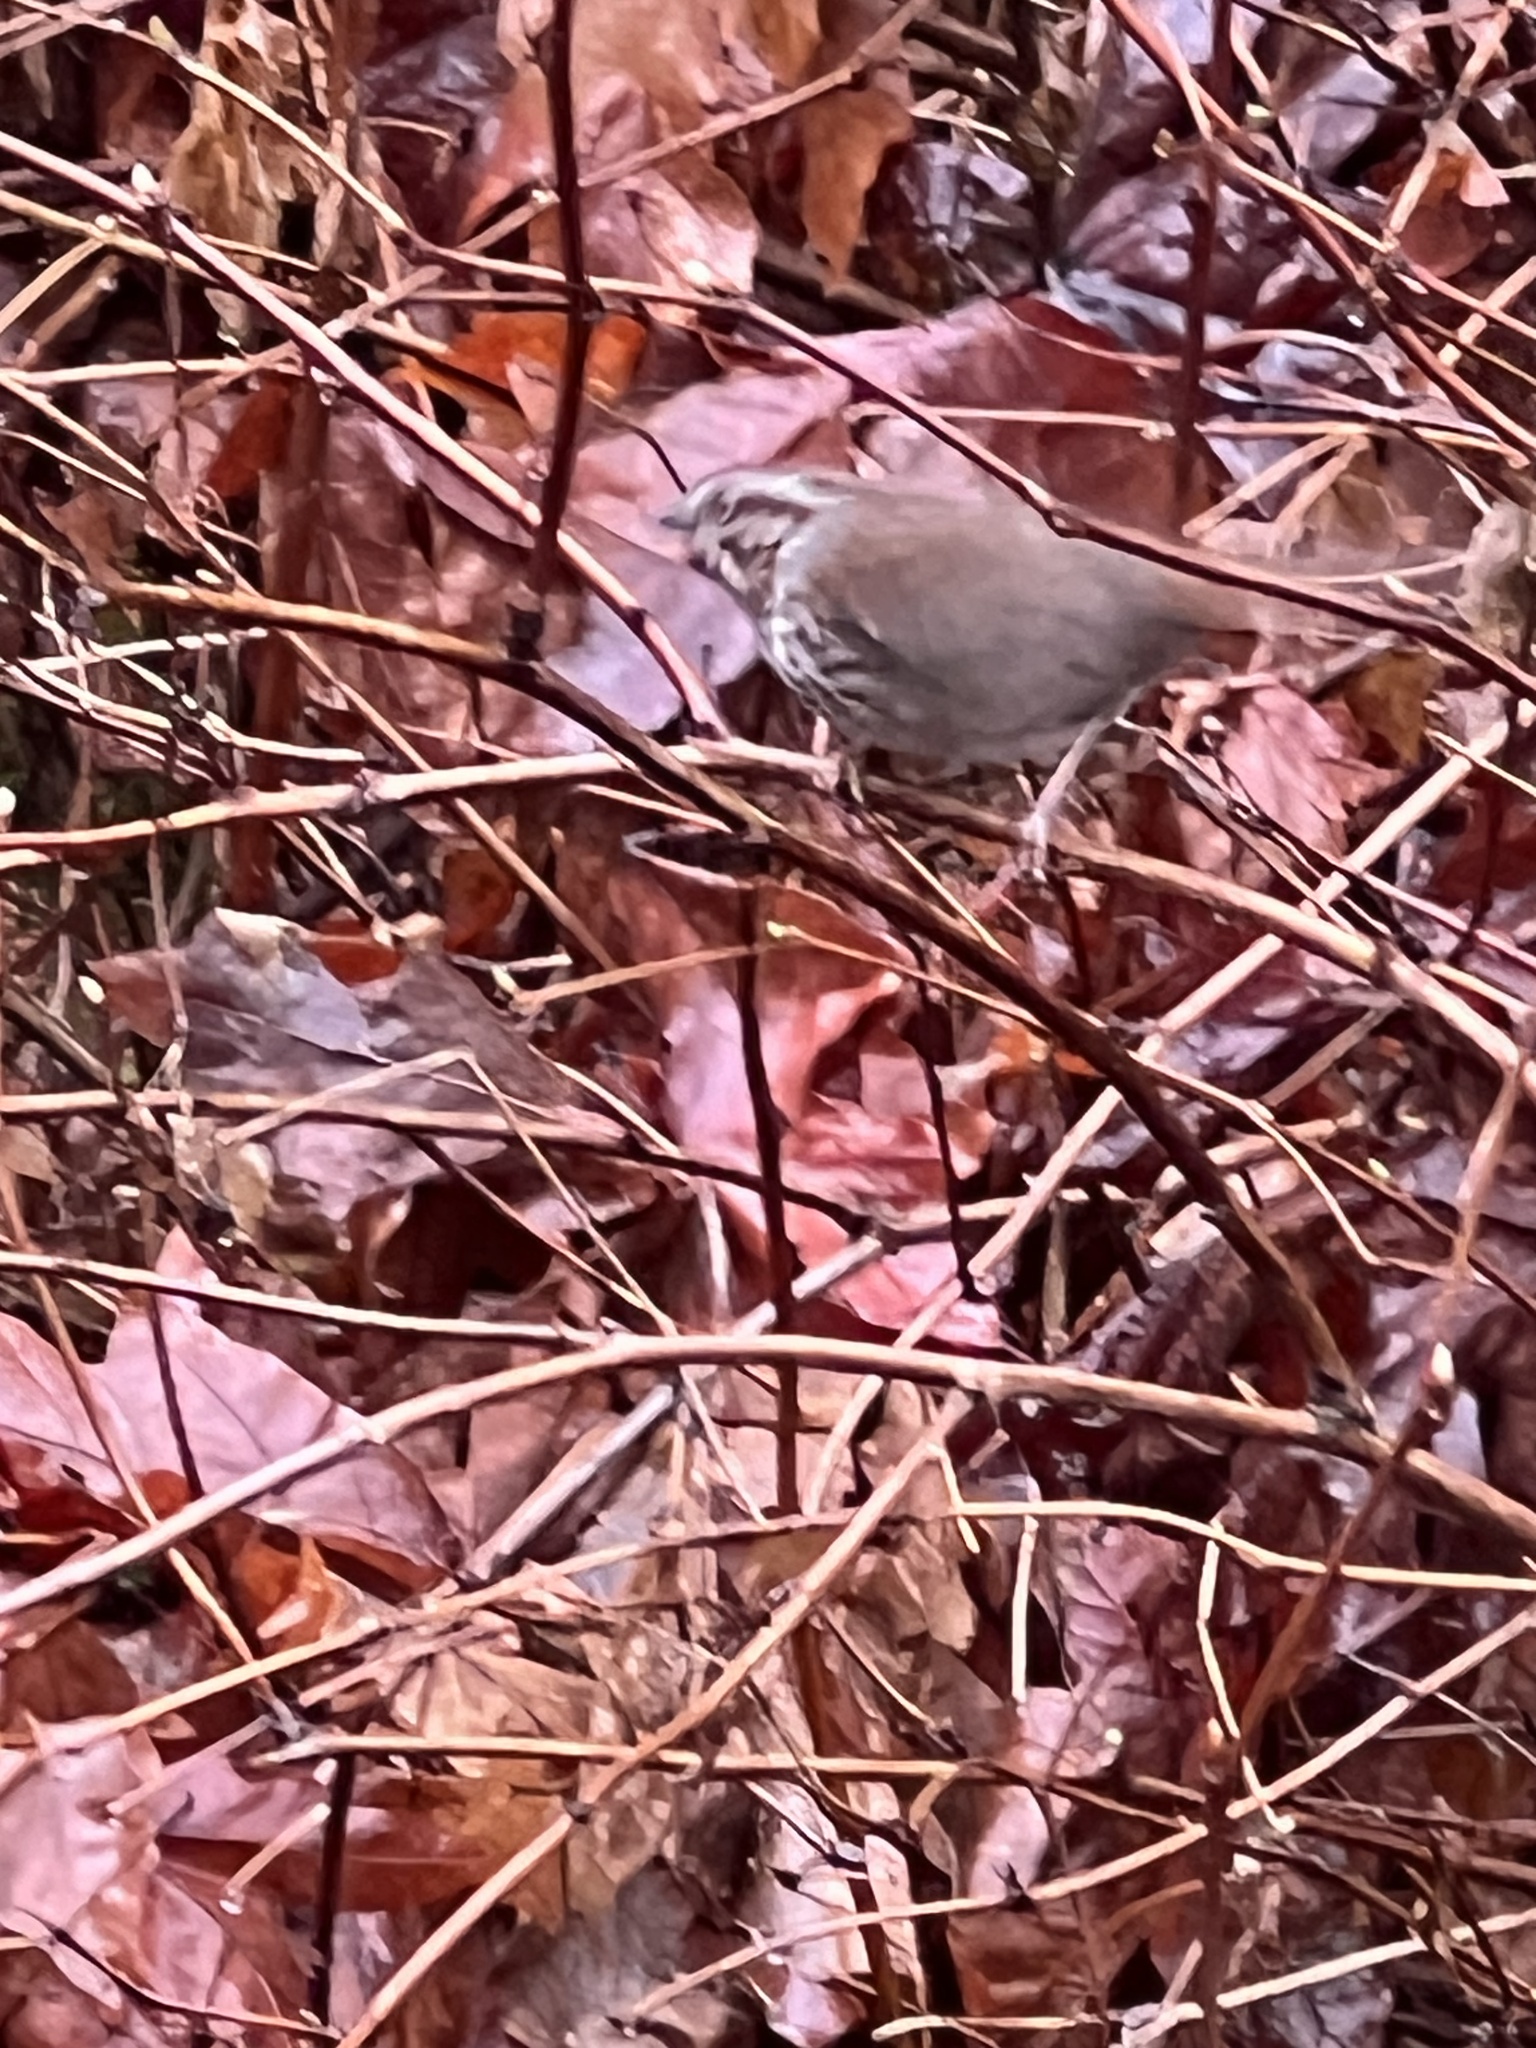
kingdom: Animalia
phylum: Chordata
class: Aves
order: Passeriformes
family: Passerellidae
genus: Melospiza
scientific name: Melospiza melodia
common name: Song sparrow
